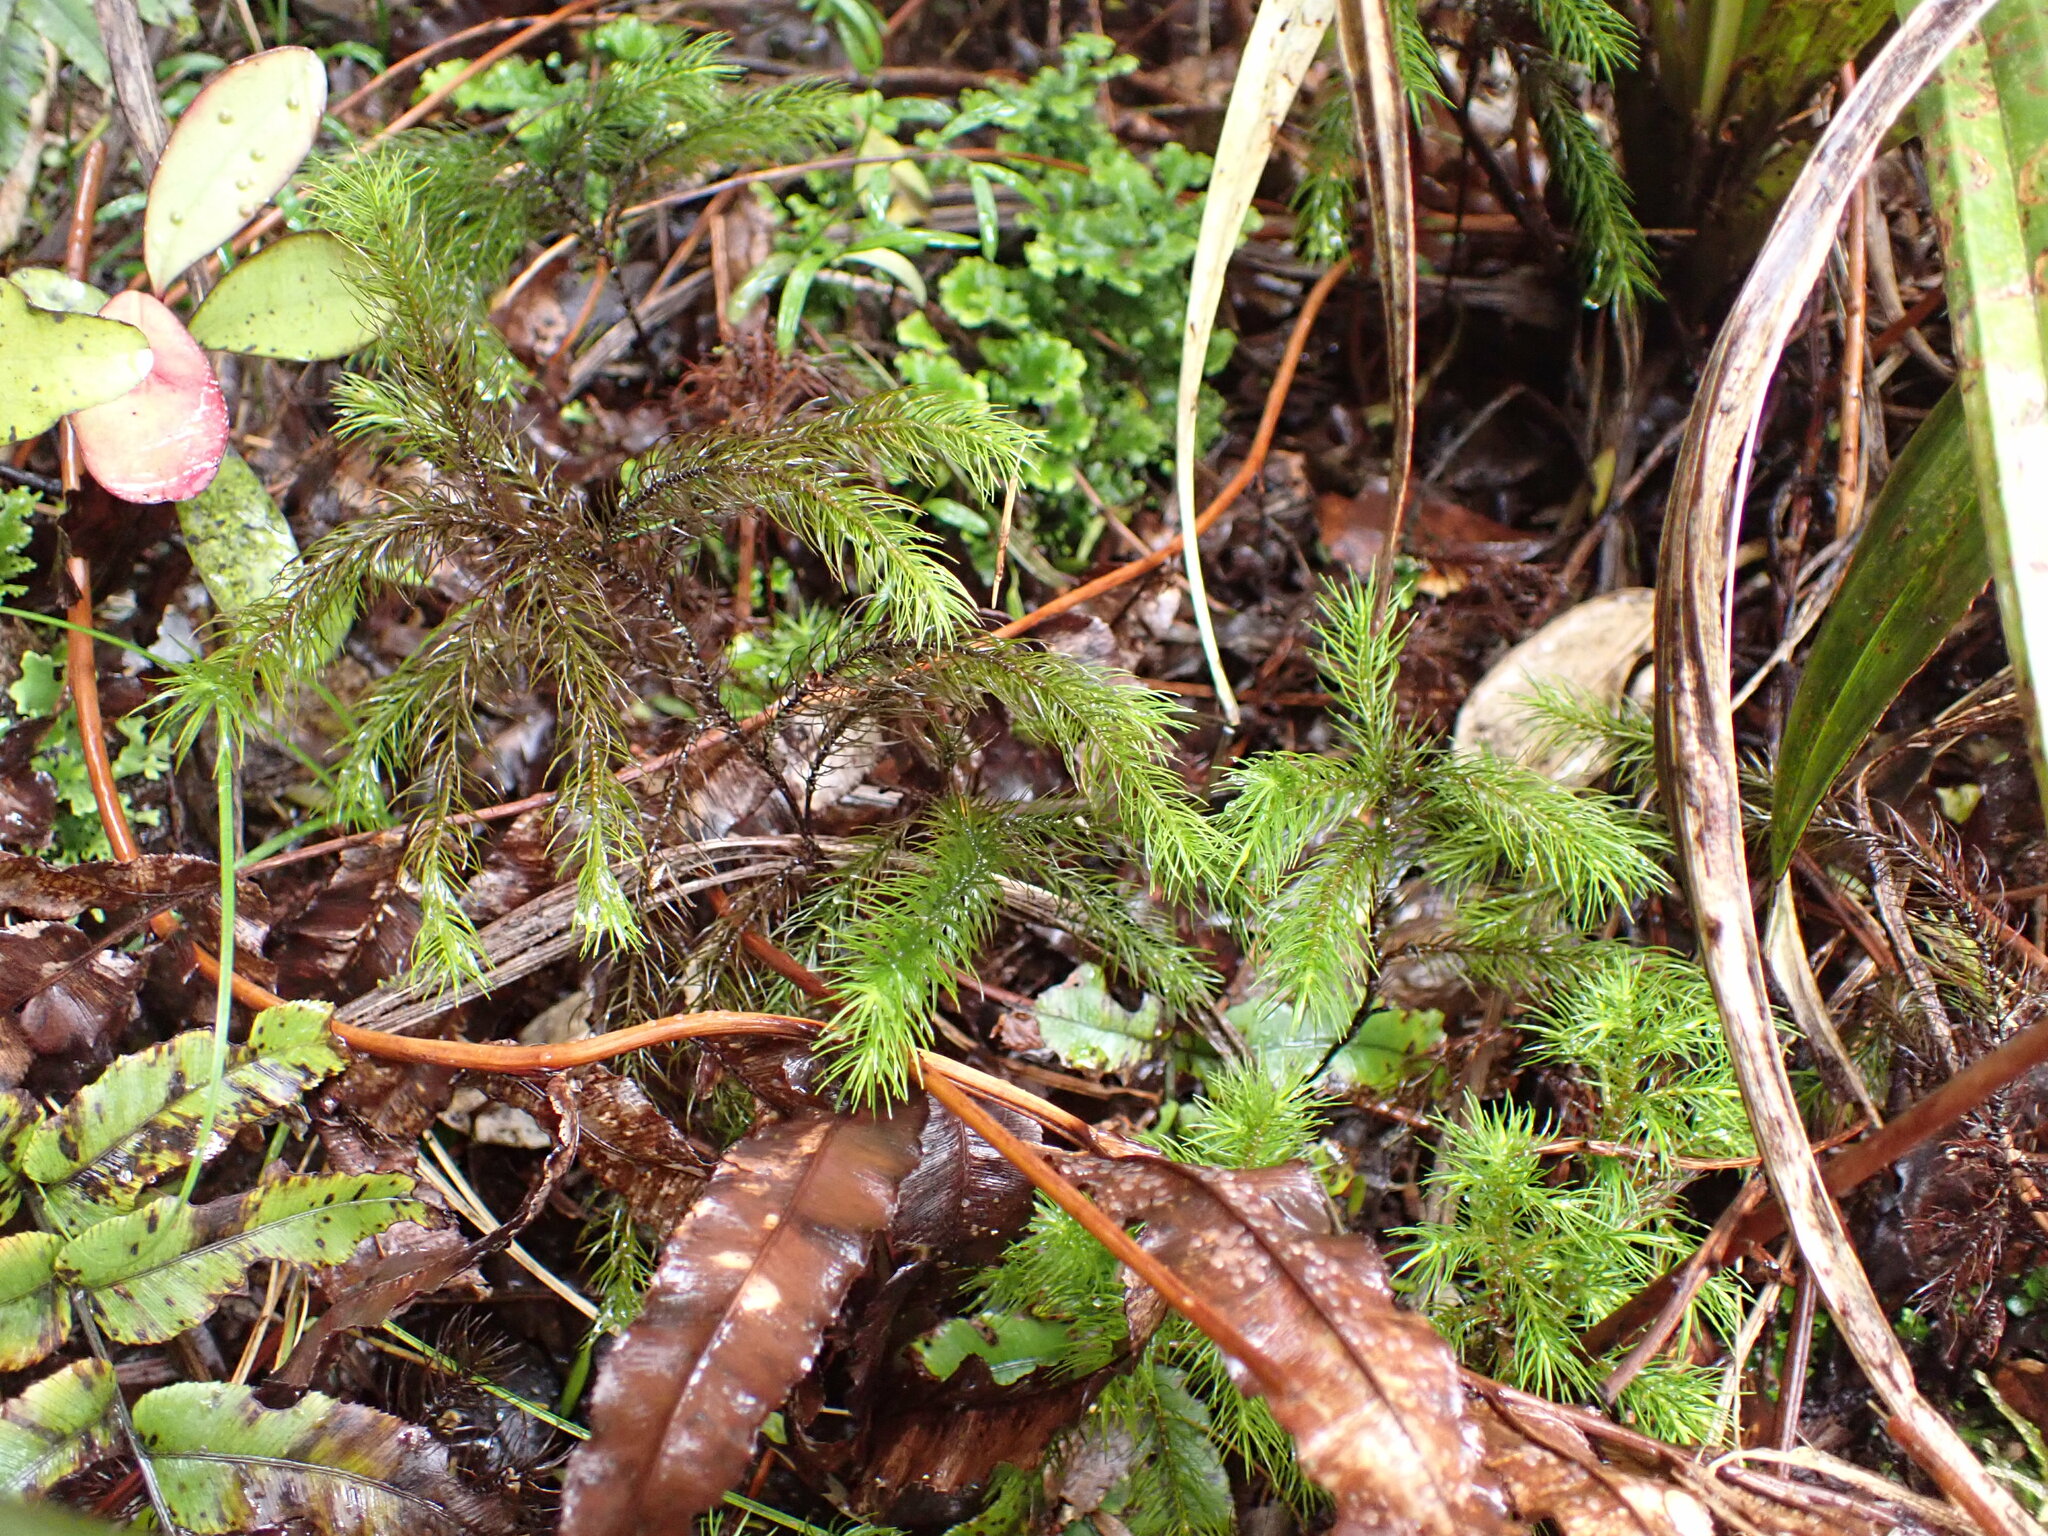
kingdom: Plantae
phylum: Bryophyta
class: Polytrichopsida
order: Polytrichales
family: Polytrichaceae
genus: Dendroligotrichum
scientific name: Dendroligotrichum tongariroense
